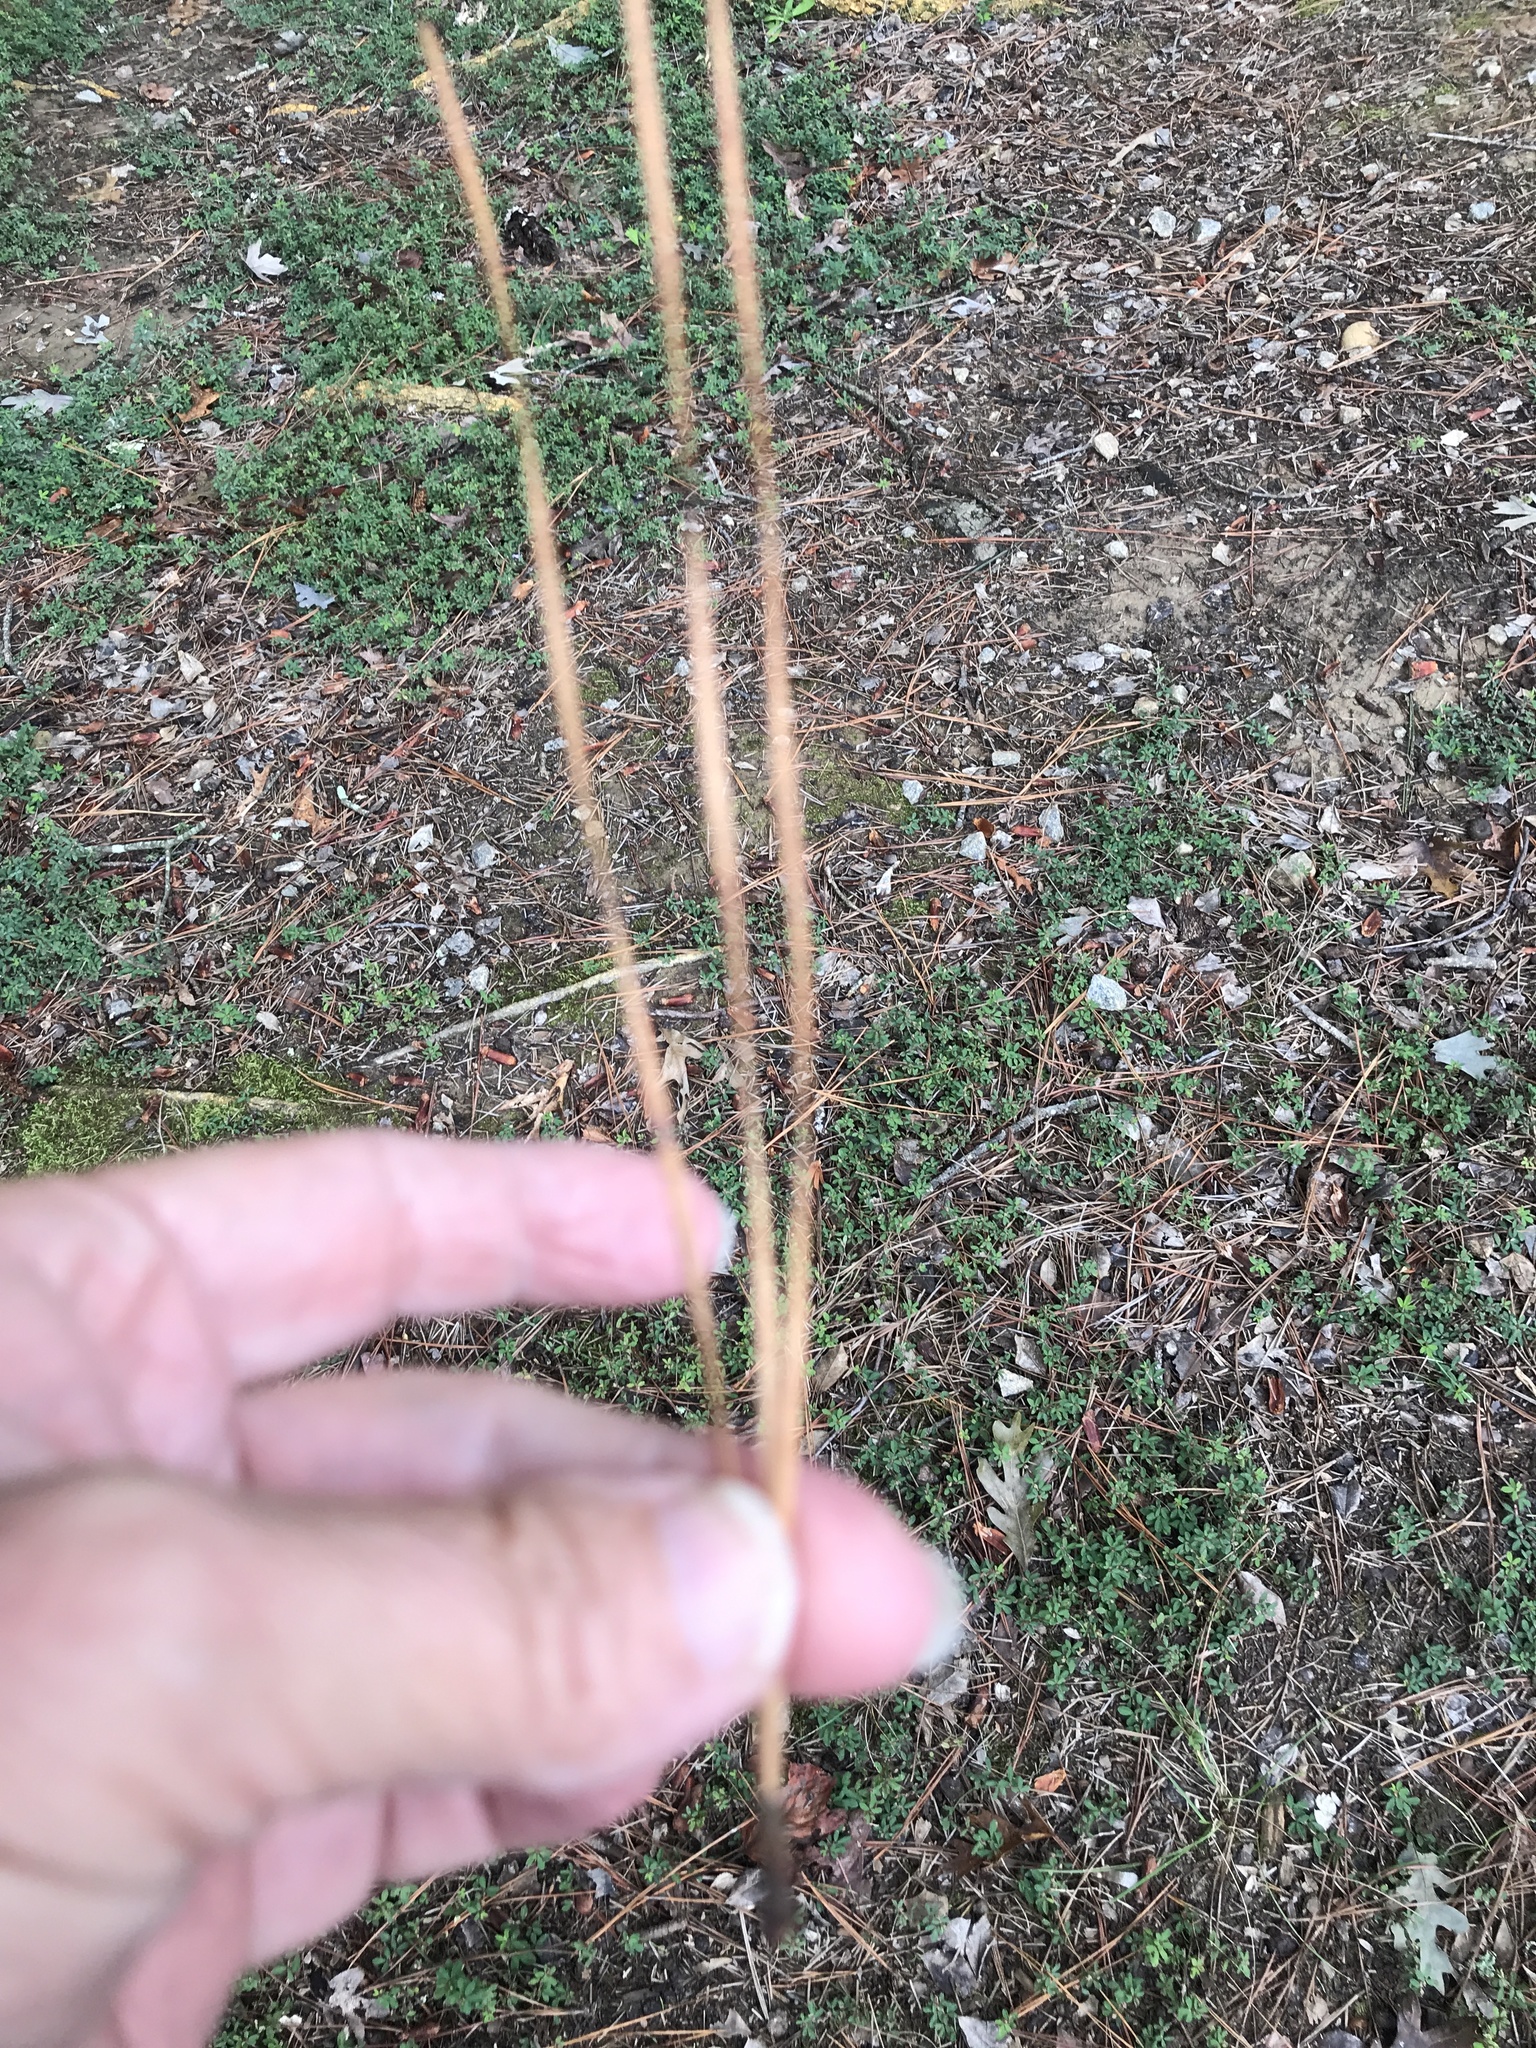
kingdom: Plantae
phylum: Tracheophyta
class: Pinopsida
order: Pinales
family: Pinaceae
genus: Pinus
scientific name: Pinus taeda
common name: Loblolly pine
